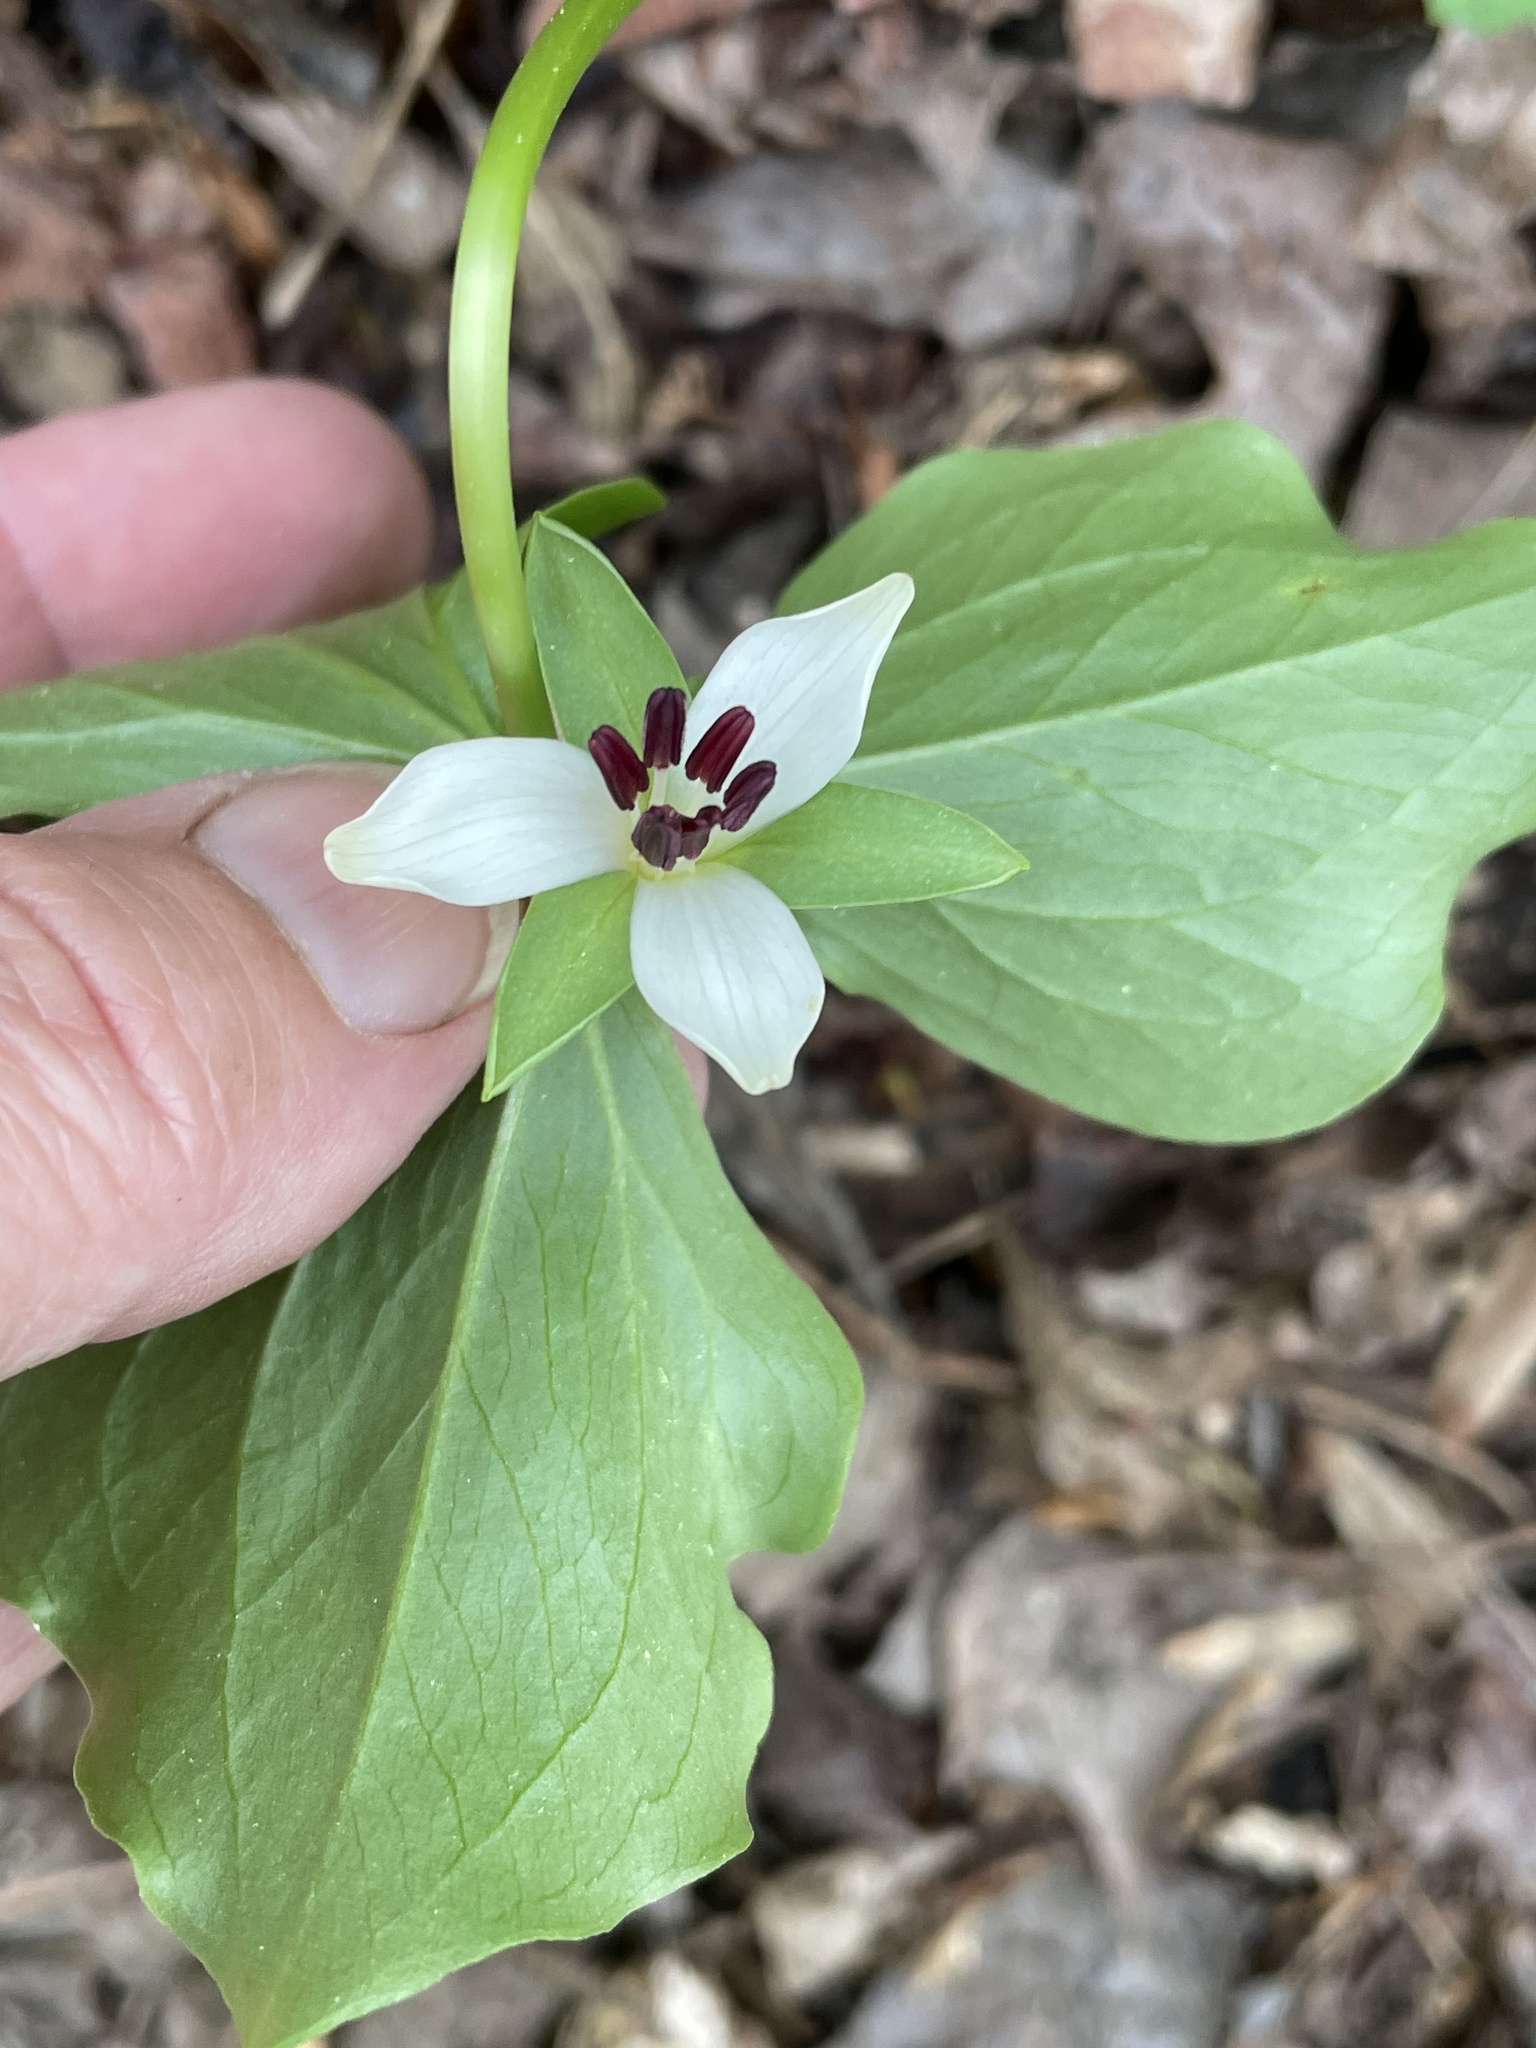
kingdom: Plantae
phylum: Tracheophyta
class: Liliopsida
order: Liliales
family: Melanthiaceae
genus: Trillium
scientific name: Trillium rugelii
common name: Ill-scented trillium
